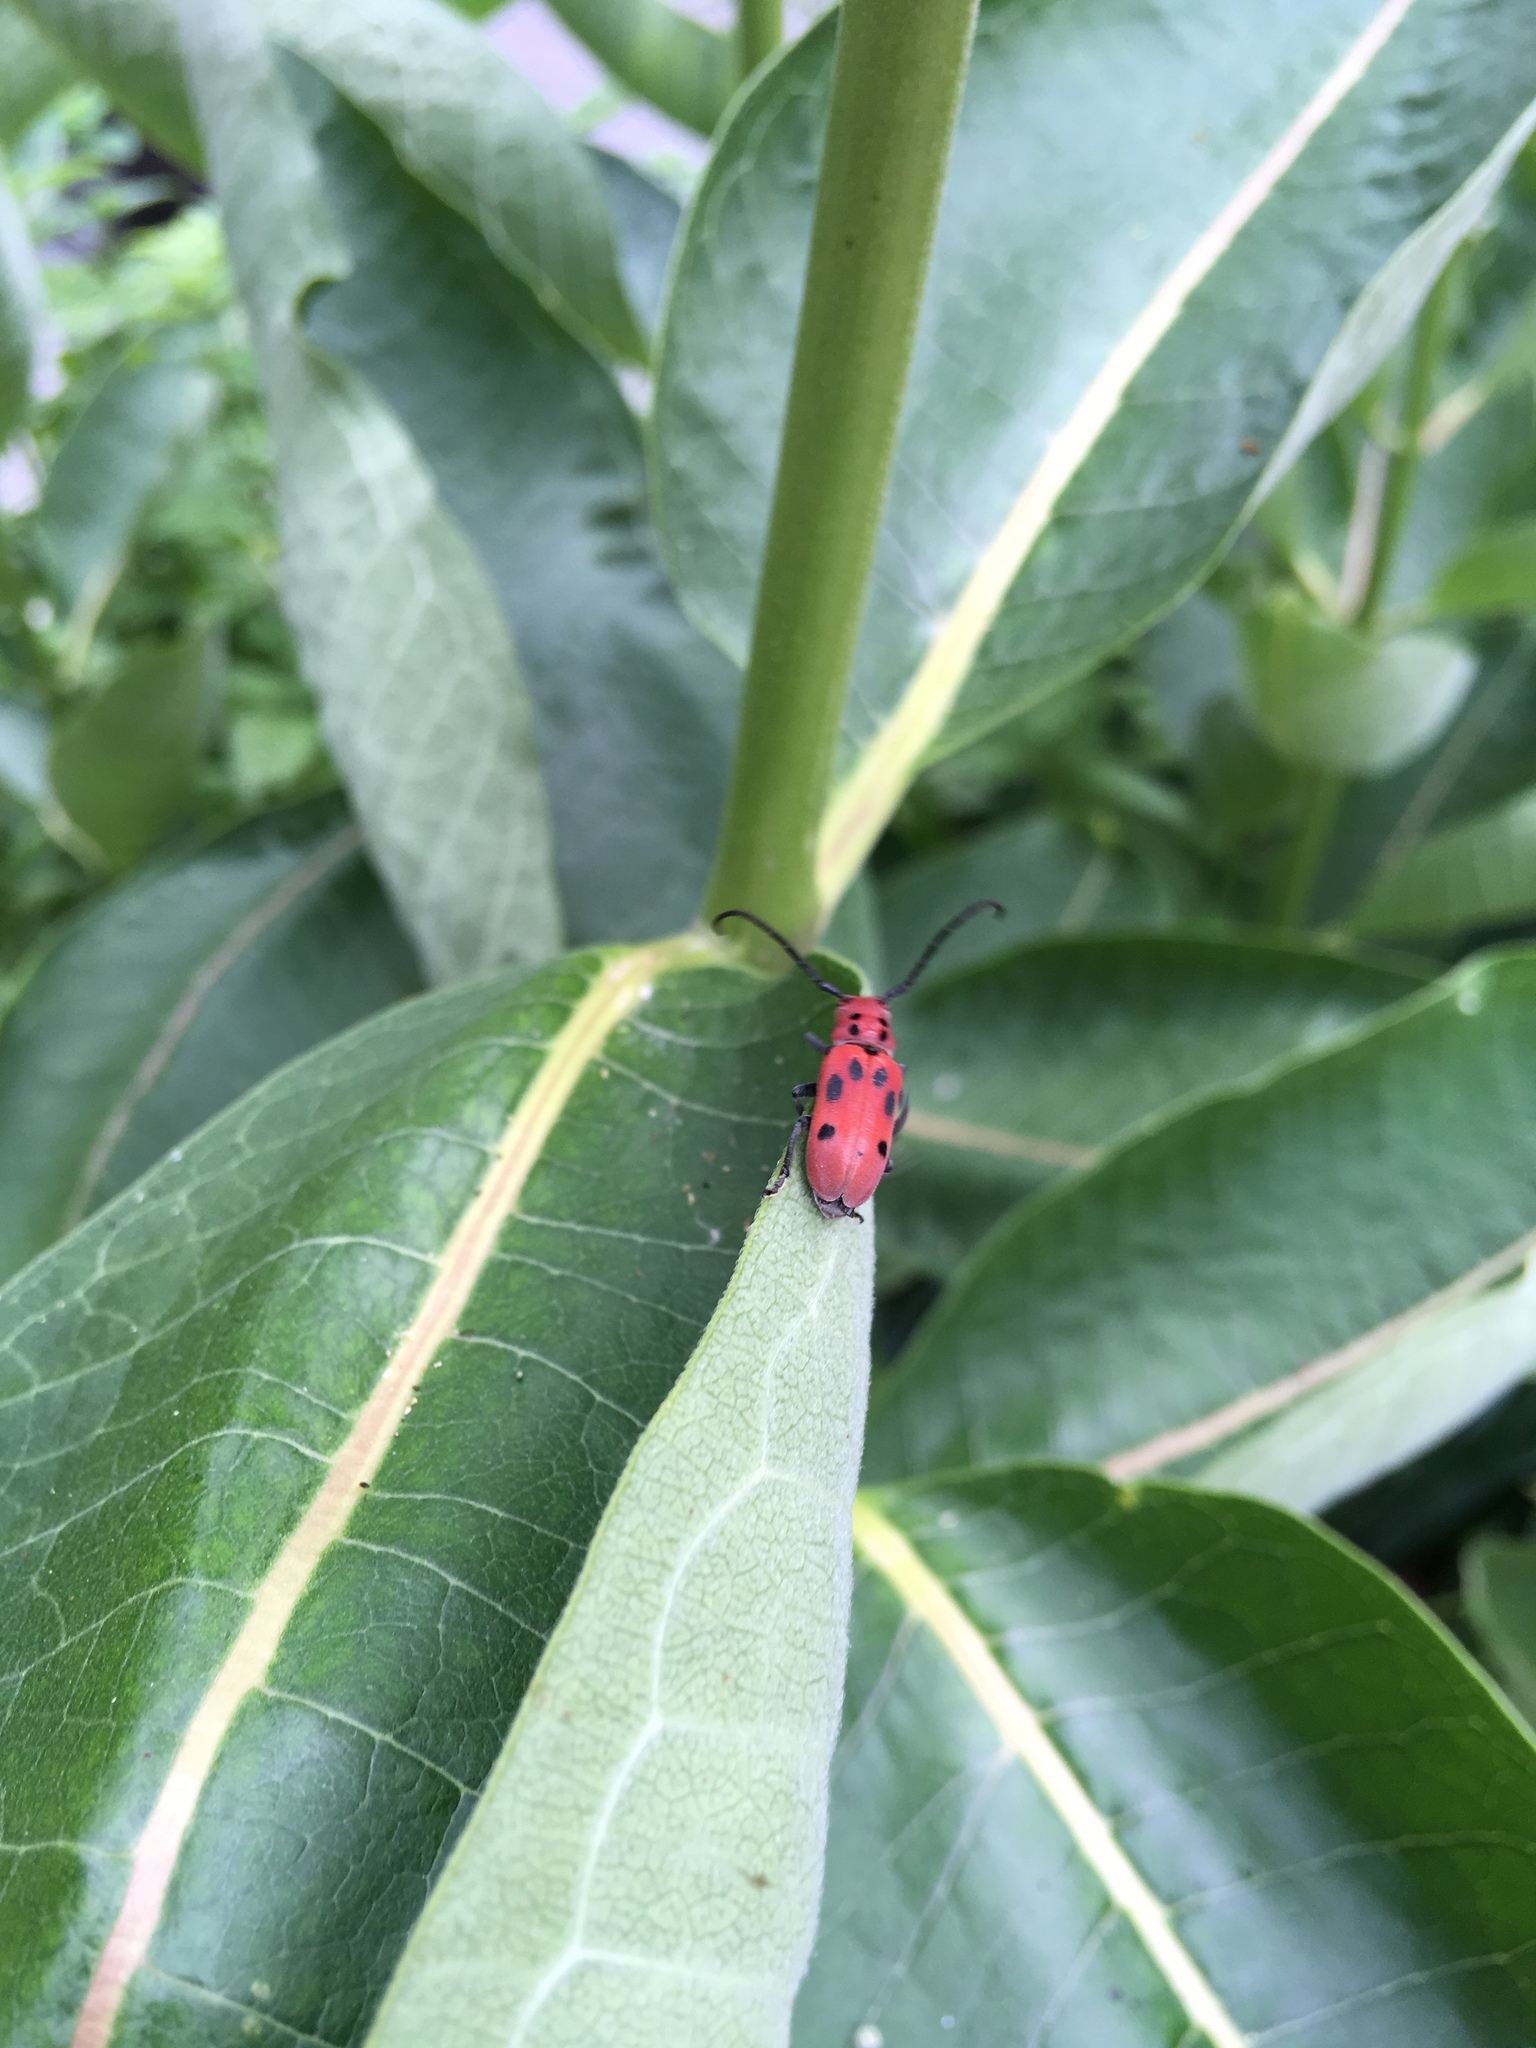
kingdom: Animalia
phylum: Arthropoda
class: Insecta
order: Coleoptera
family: Cerambycidae
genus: Tetraopes
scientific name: Tetraopes tetrophthalmus
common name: Red milkweed beetle
